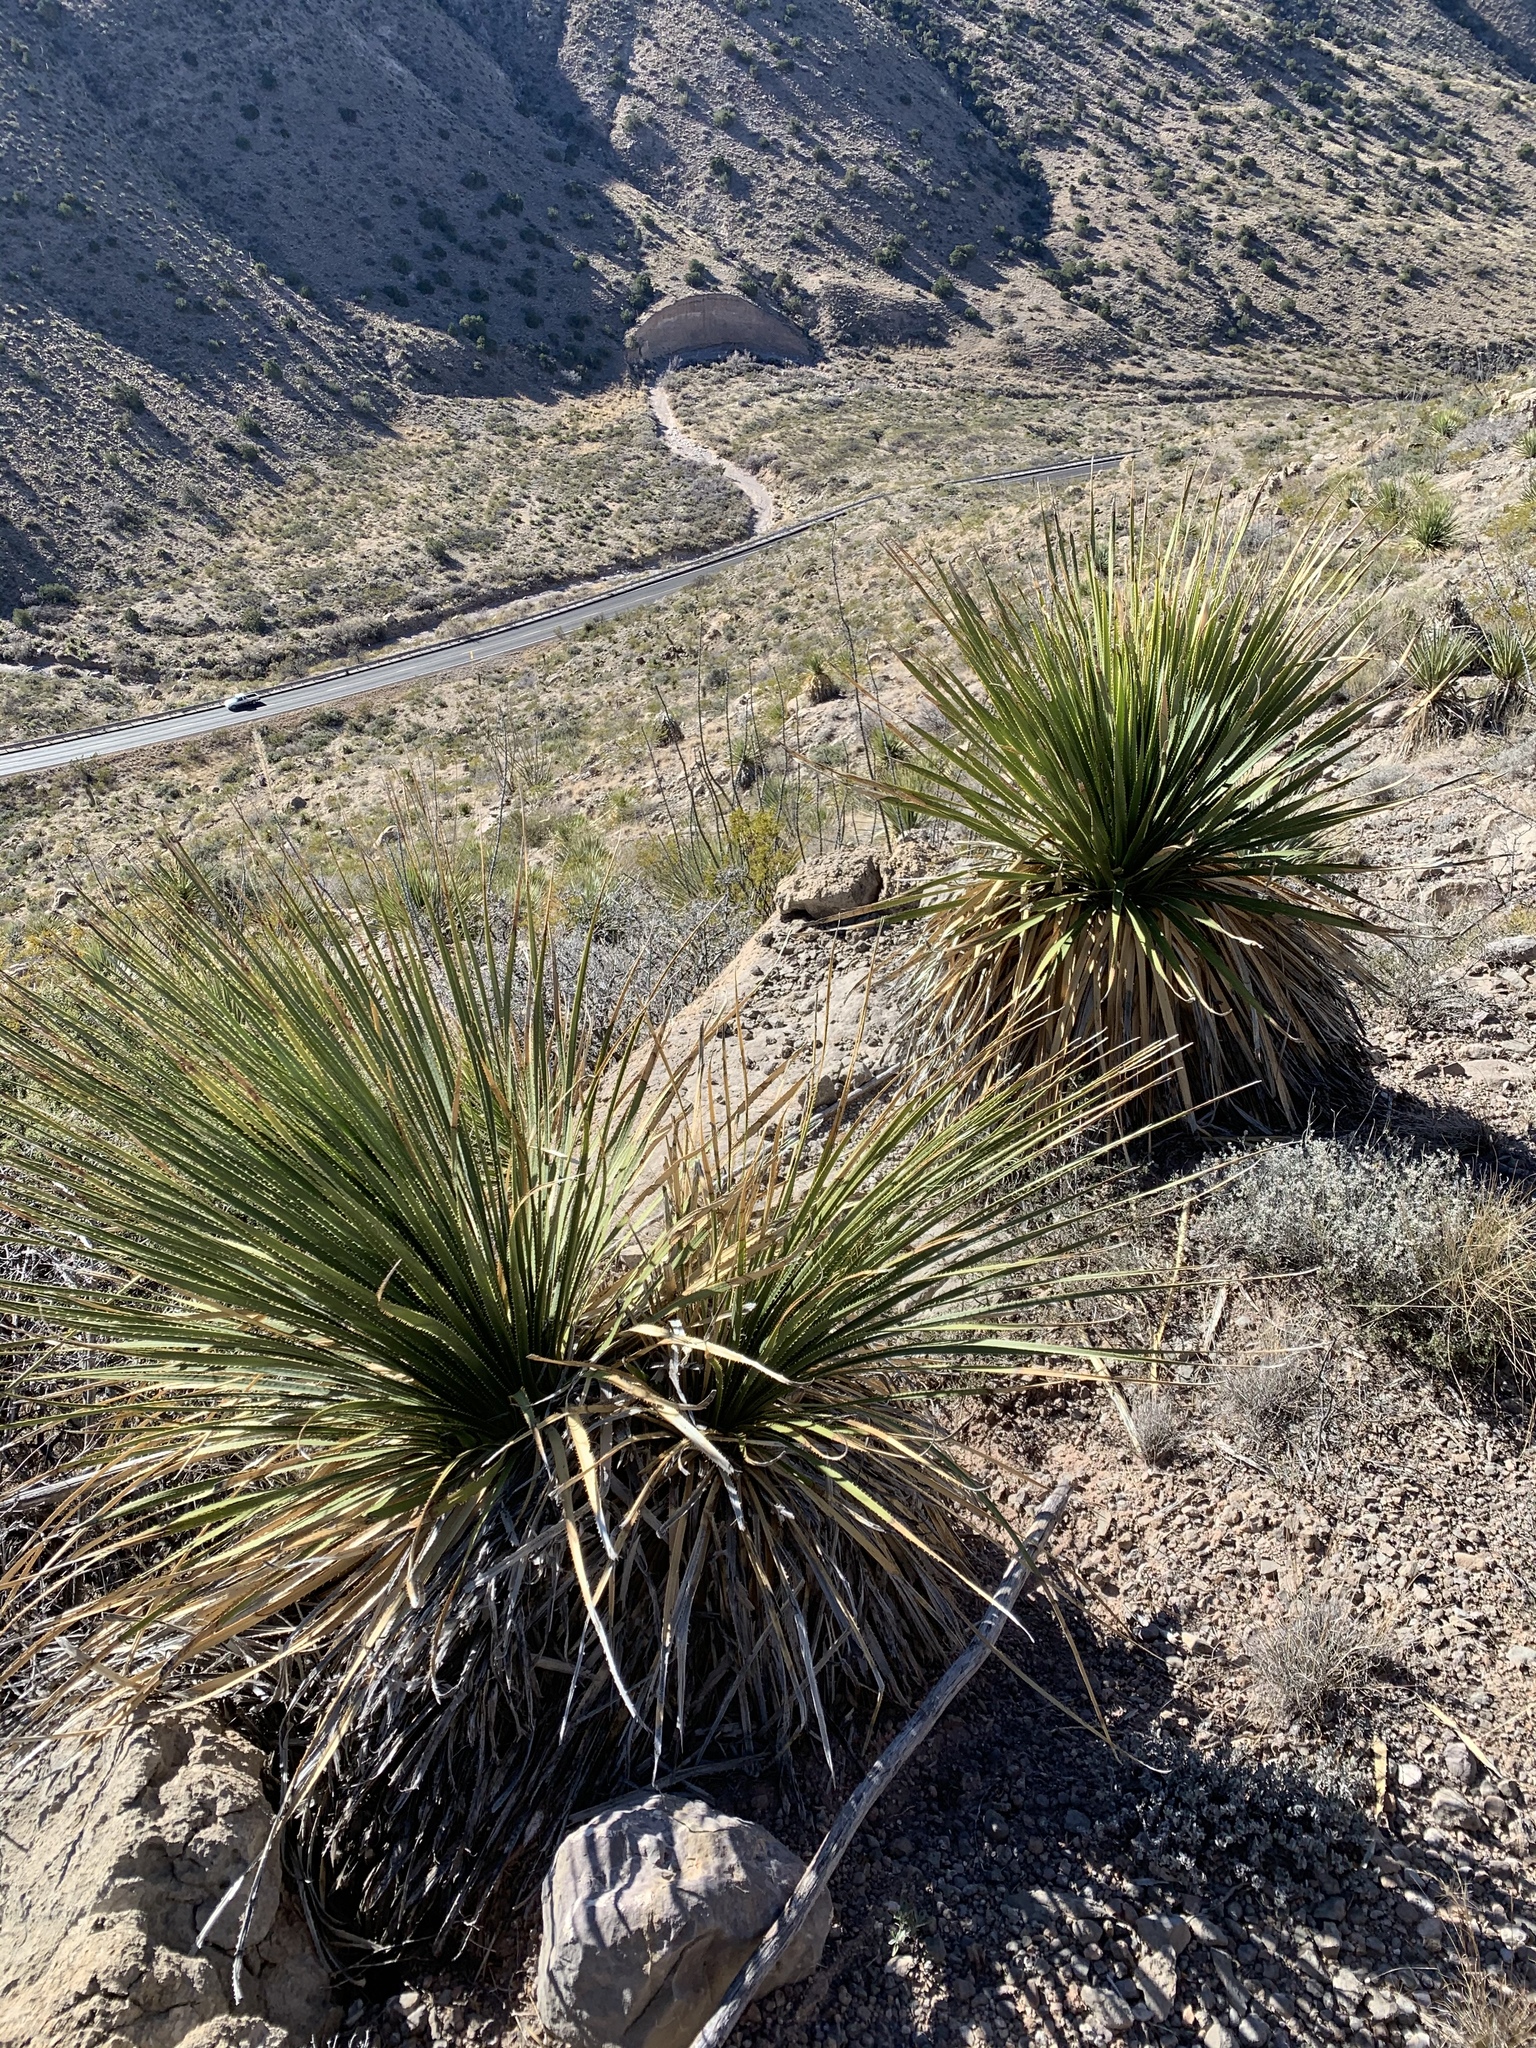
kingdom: Plantae
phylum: Tracheophyta
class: Liliopsida
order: Asparagales
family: Asparagaceae
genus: Dasylirion
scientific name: Dasylirion wheeleri
